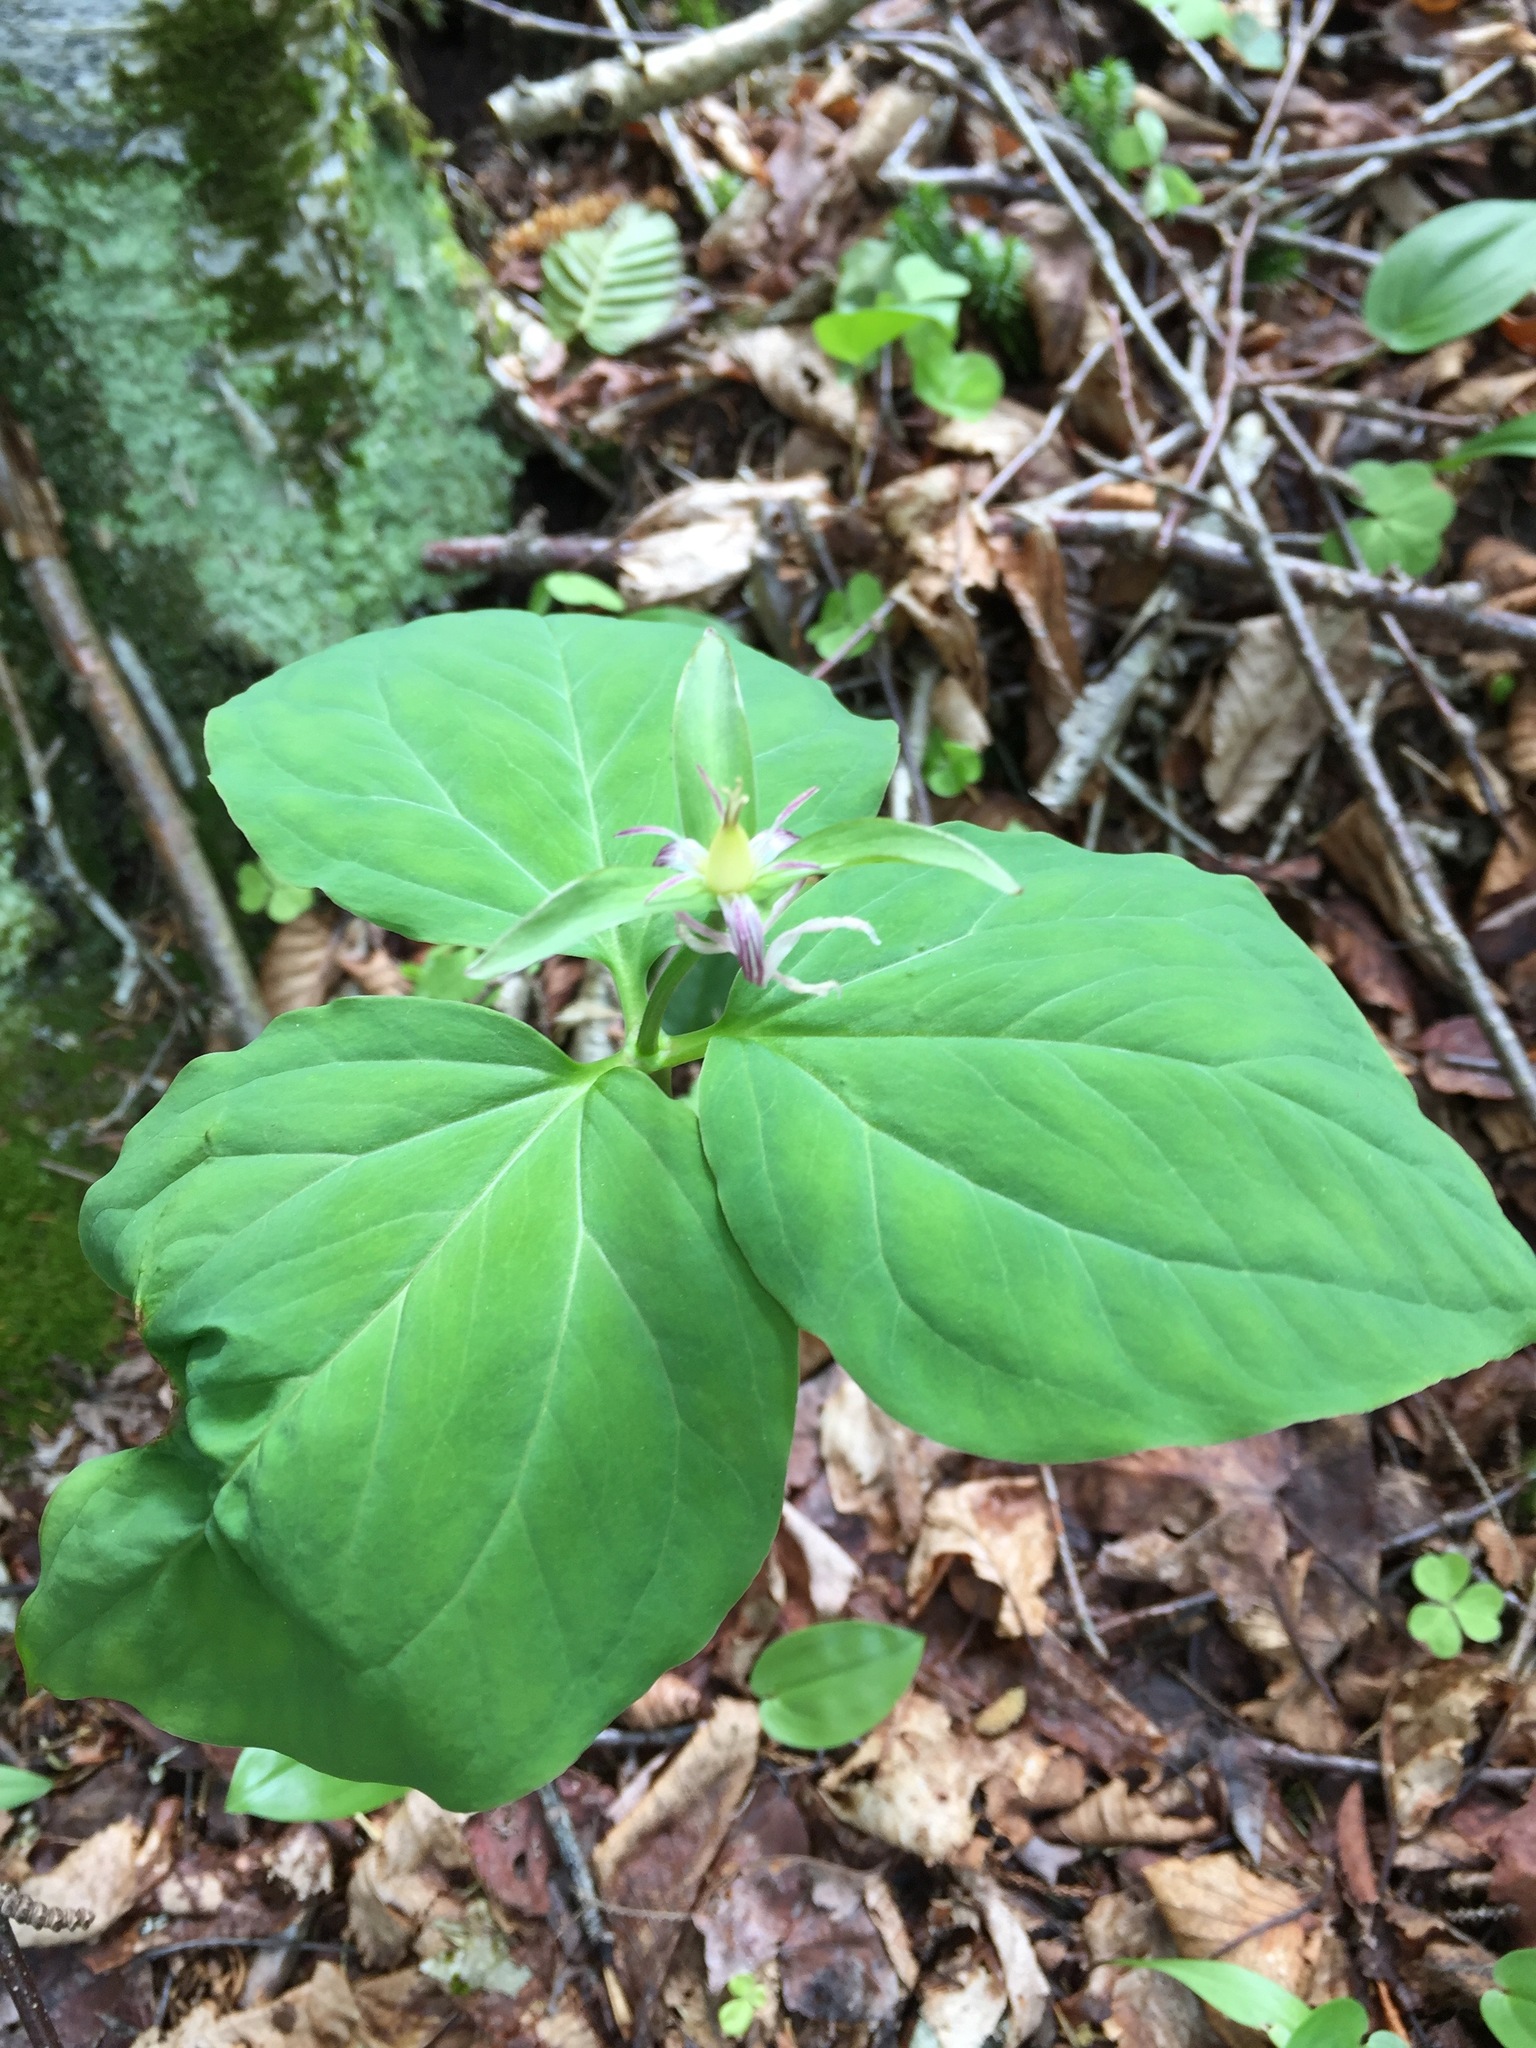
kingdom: Plantae
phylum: Tracheophyta
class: Liliopsida
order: Liliales
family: Melanthiaceae
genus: Trillium
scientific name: Trillium undulatum
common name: Paint trillium
